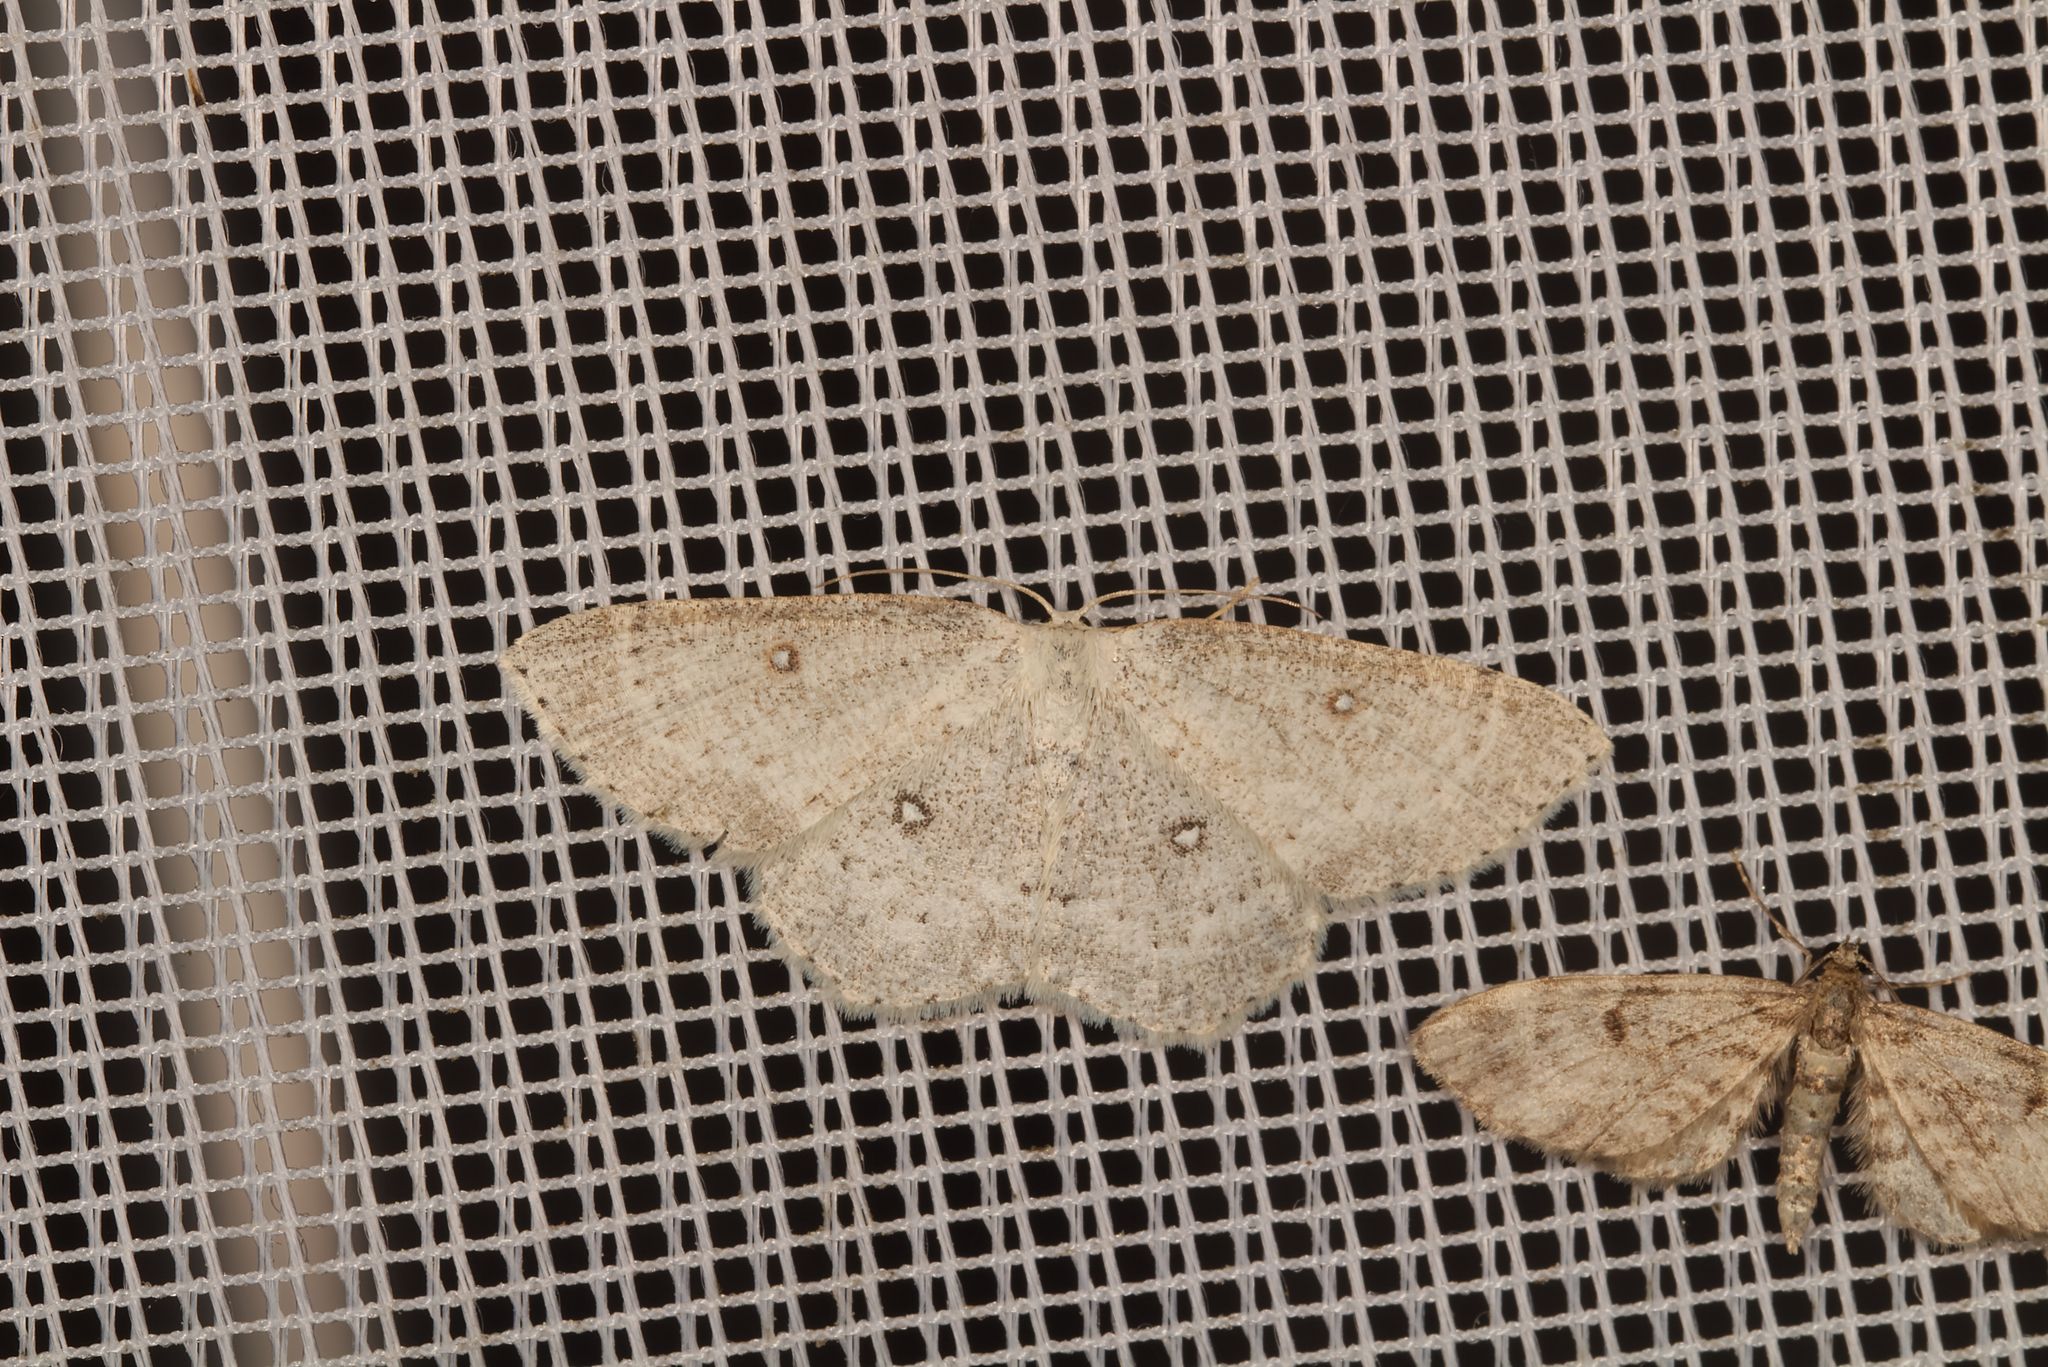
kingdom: Animalia
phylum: Arthropoda
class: Insecta
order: Lepidoptera
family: Geometridae
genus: Cyclophora
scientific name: Cyclophora albipunctata
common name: Birch mocha
